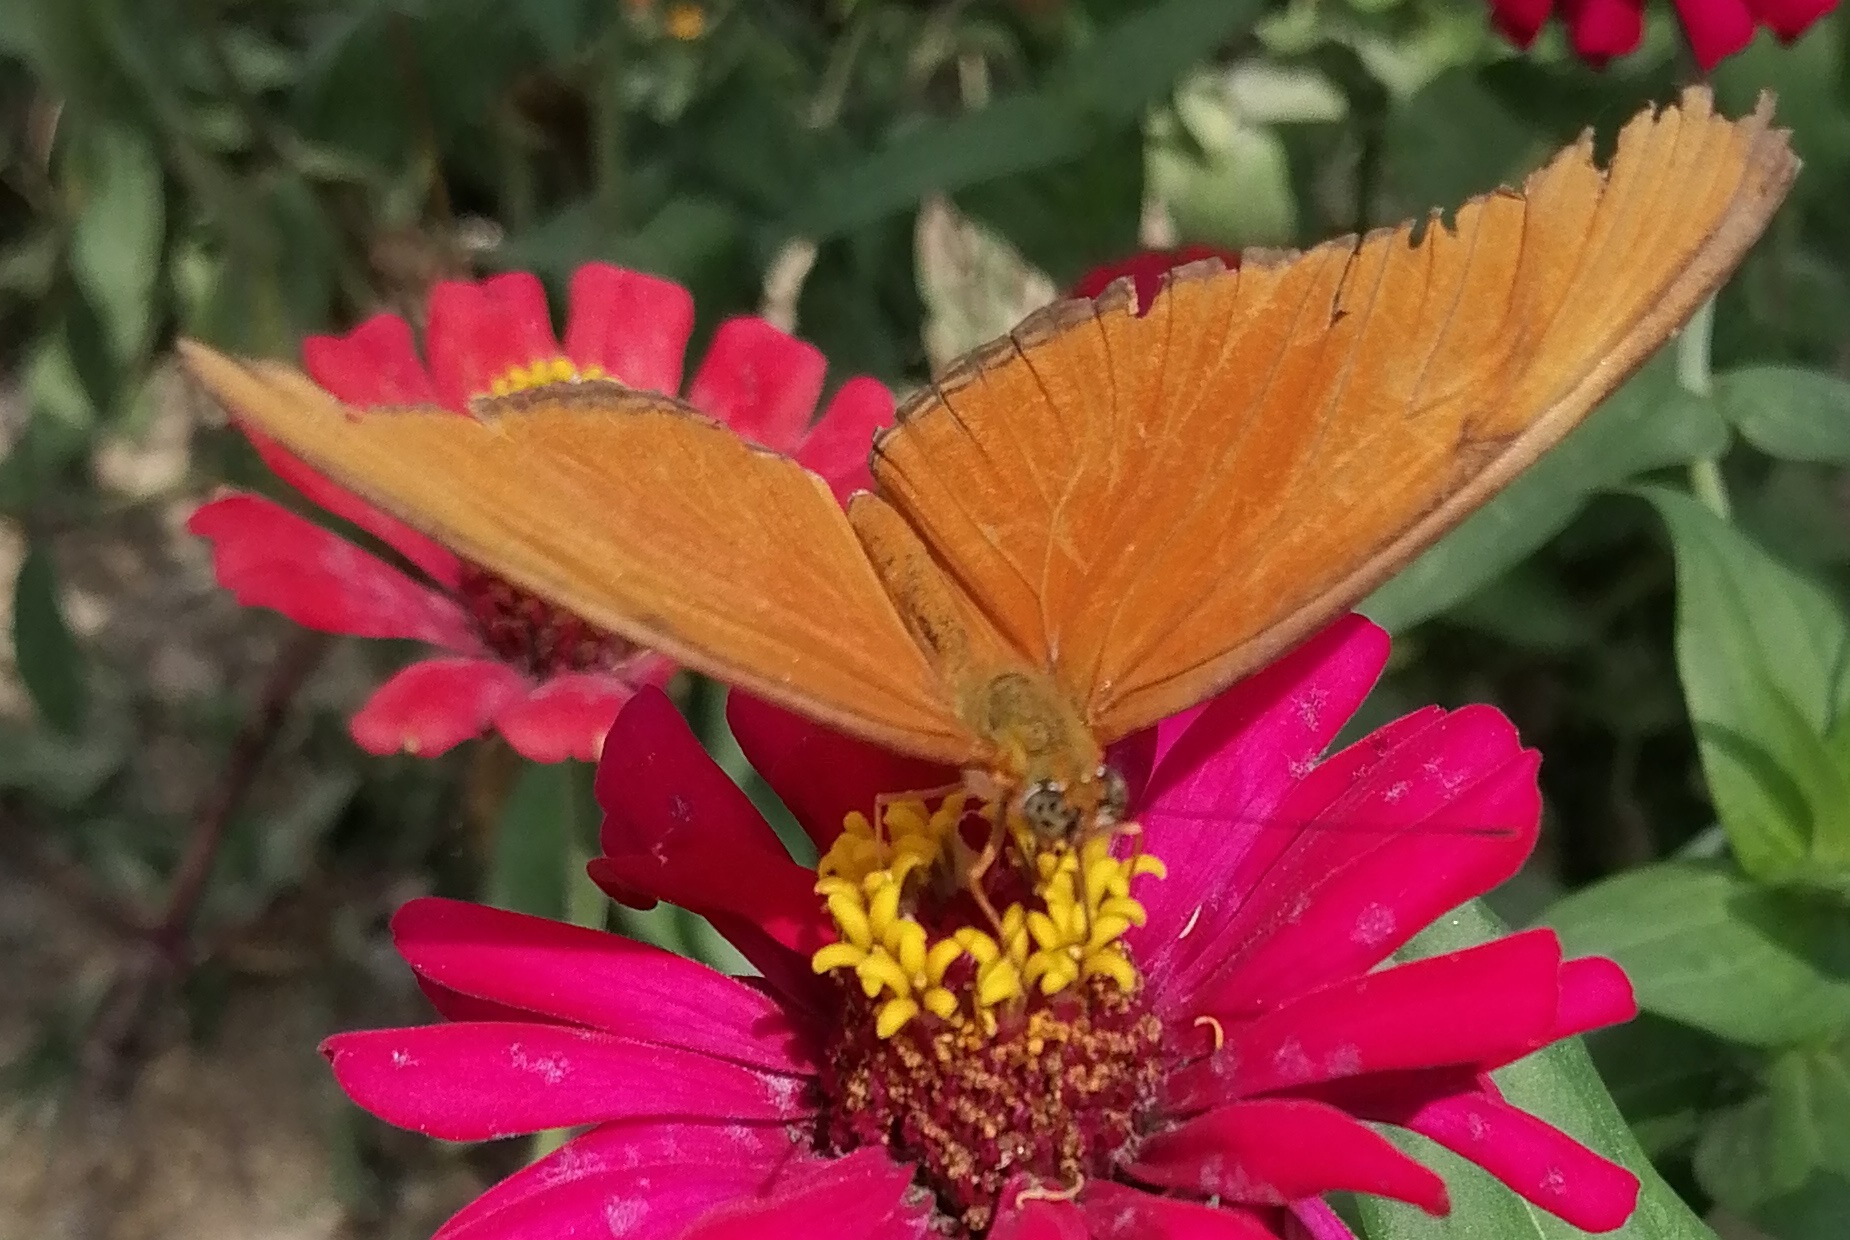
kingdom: Animalia
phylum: Arthropoda
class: Insecta
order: Lepidoptera
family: Nymphalidae
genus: Dryas
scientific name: Dryas iulia
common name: Flambeau
